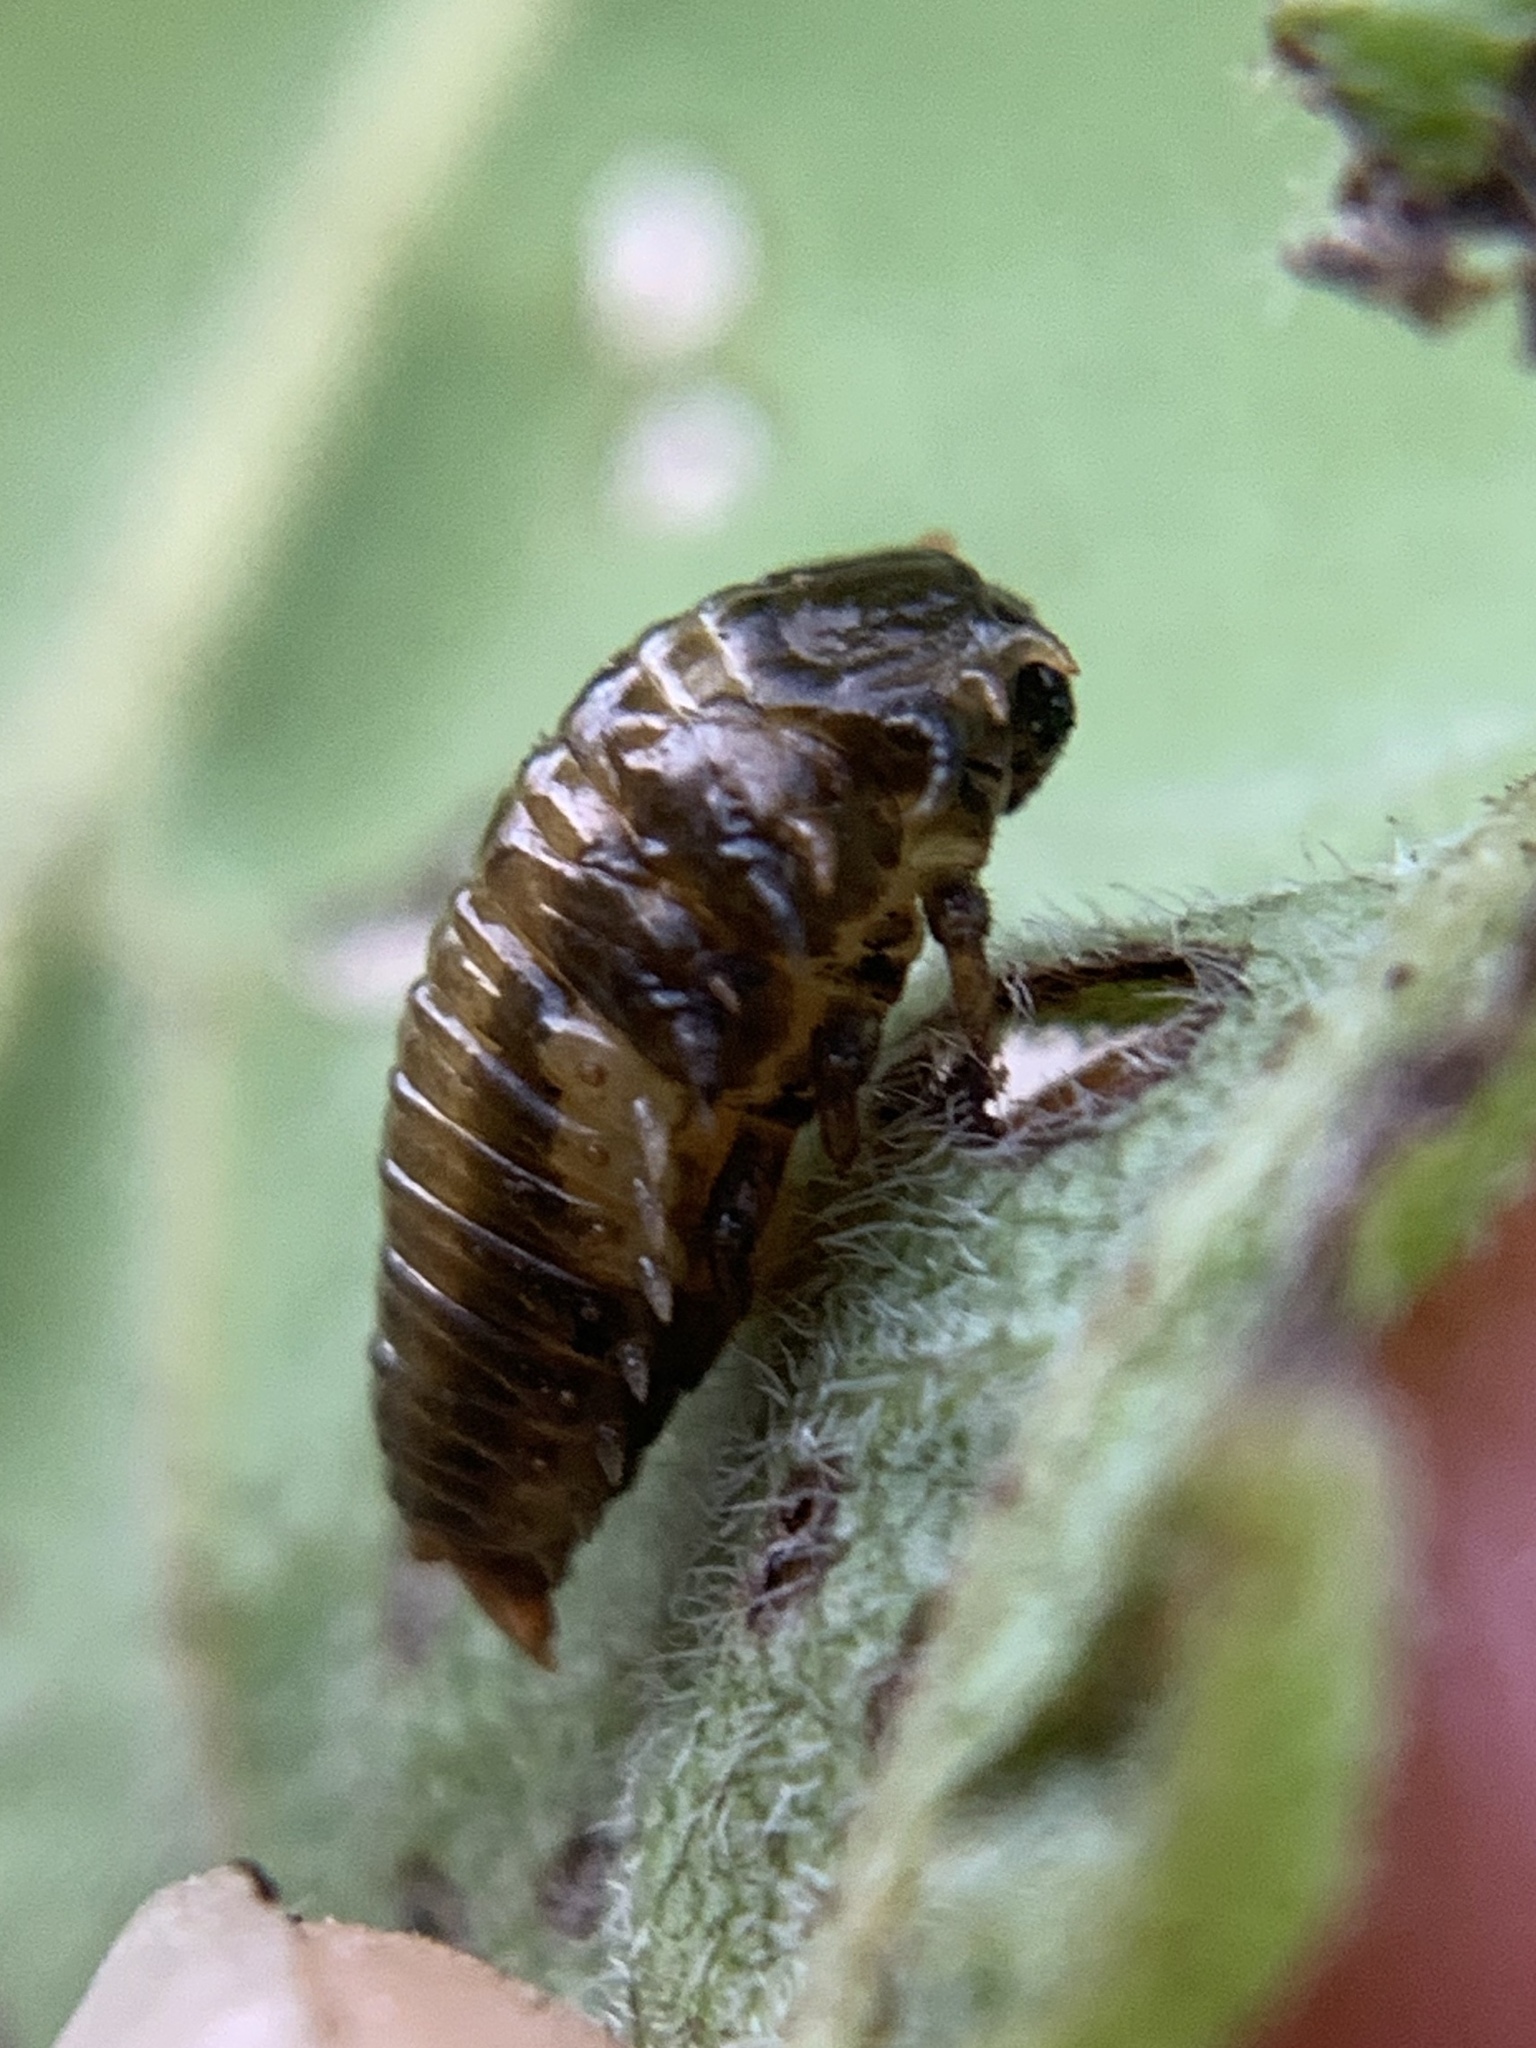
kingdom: Animalia
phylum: Arthropoda
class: Insecta
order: Coleoptera
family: Chrysomelidae
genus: Eurypepla
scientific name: Eurypepla calochroma
